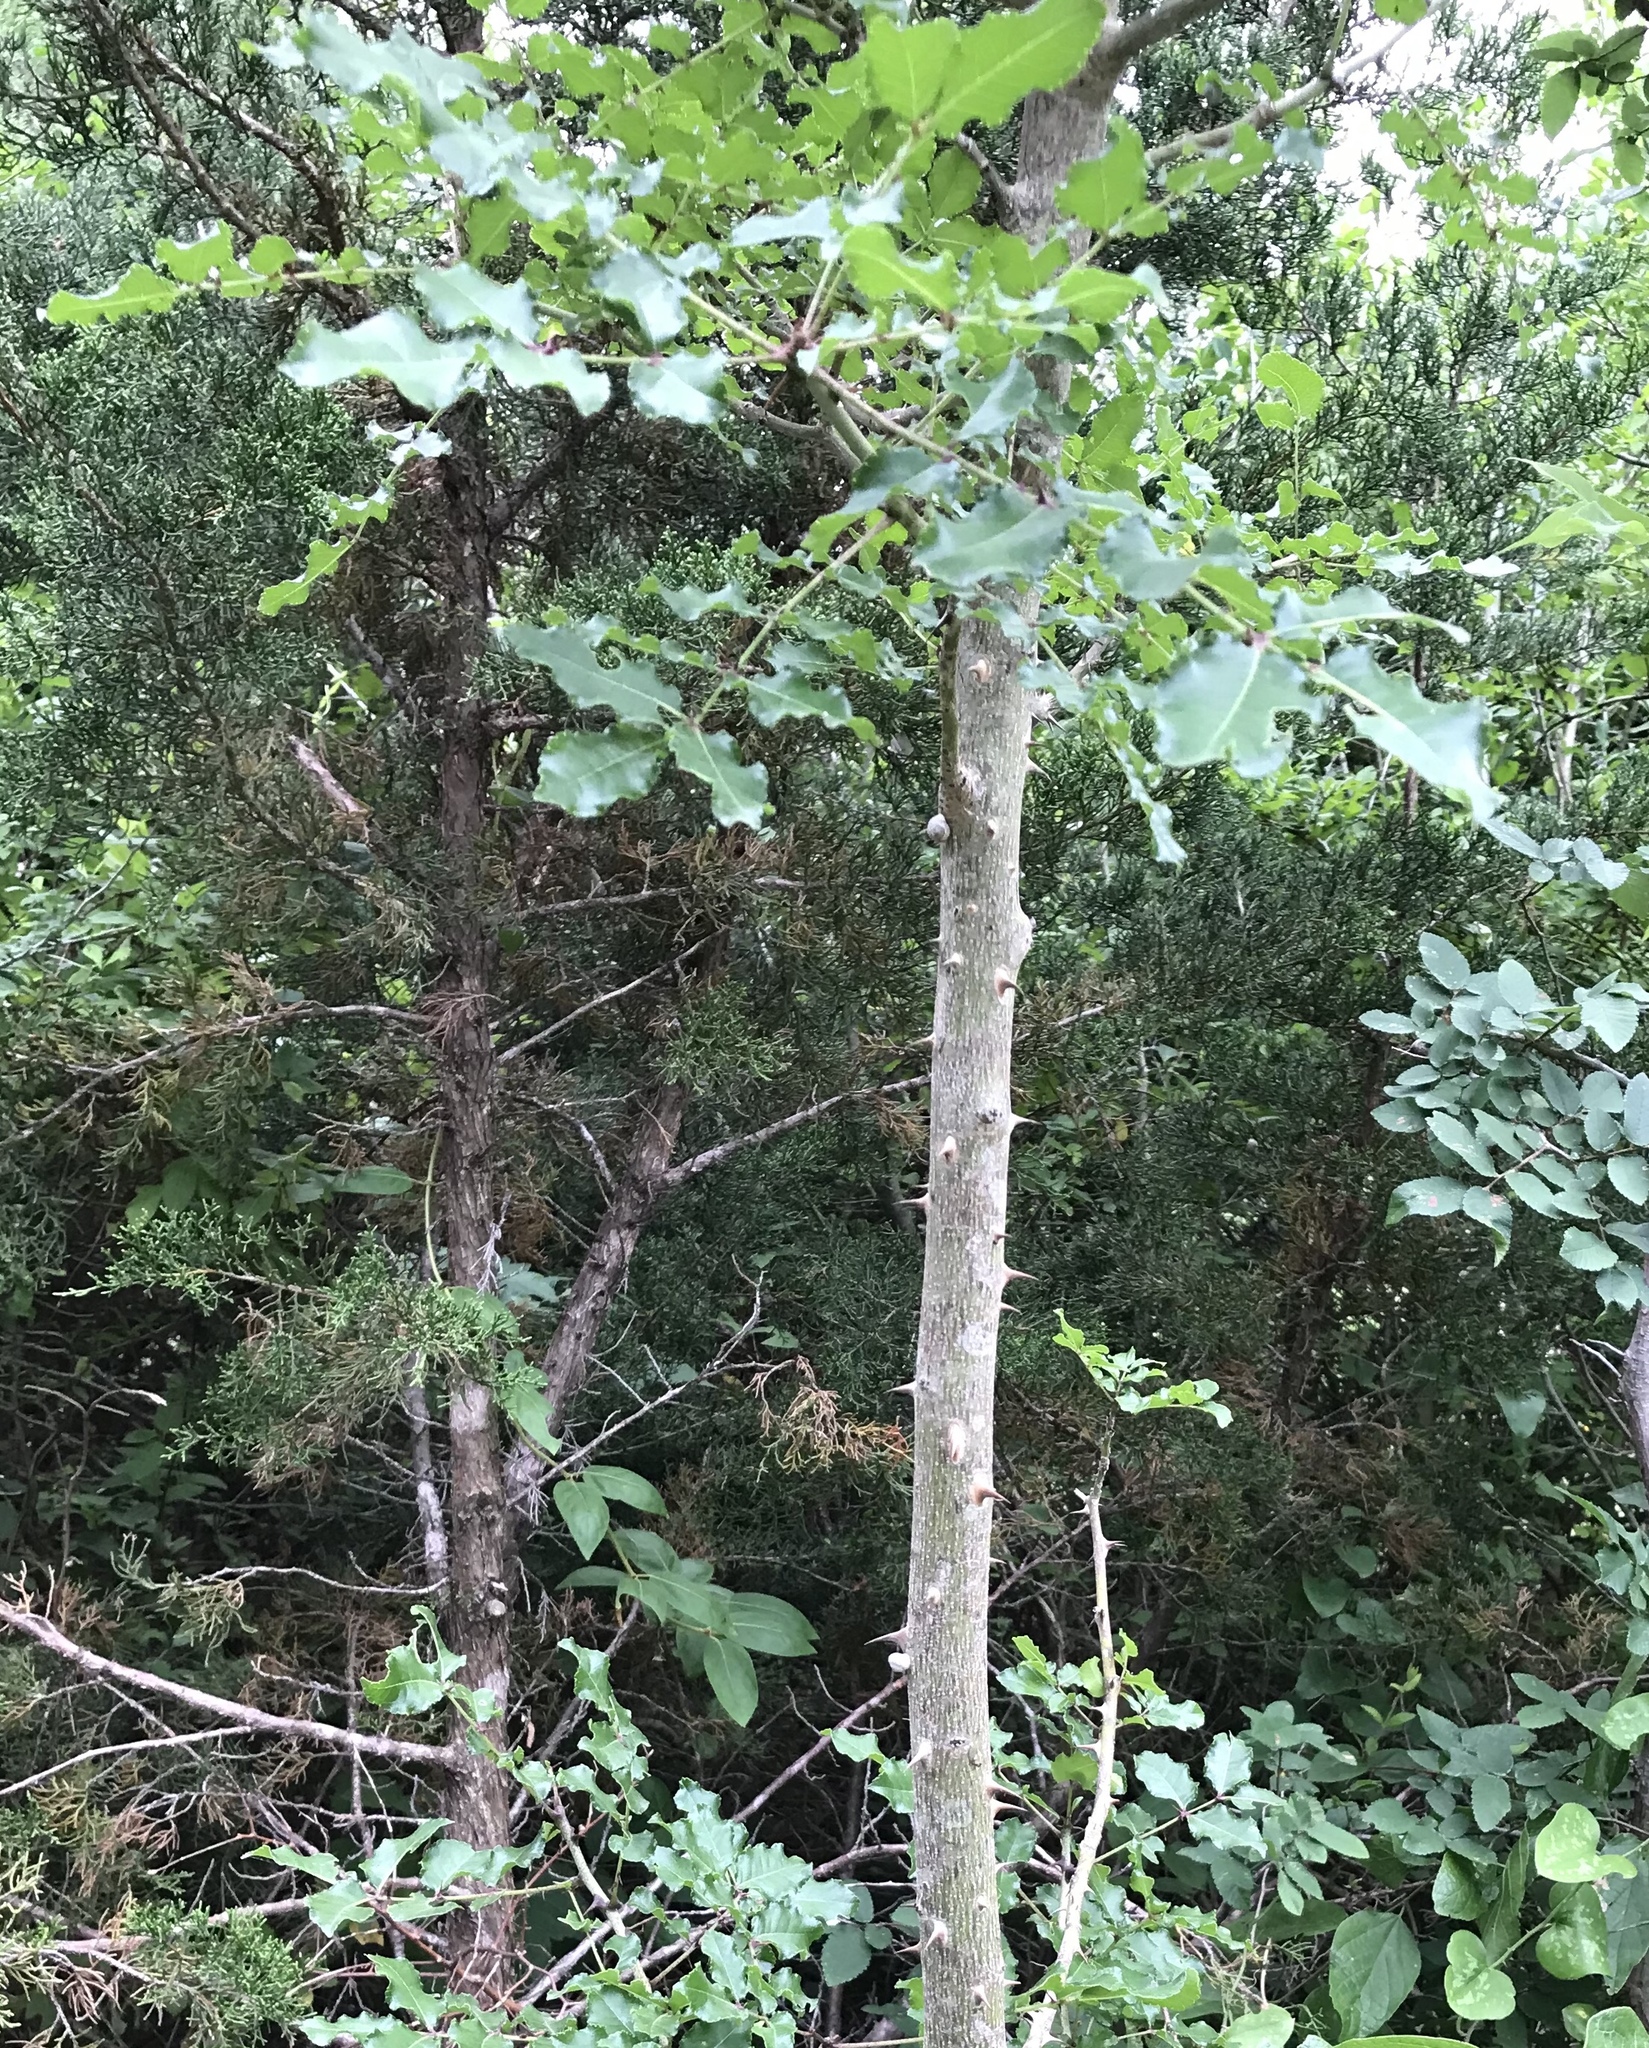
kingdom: Plantae
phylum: Tracheophyta
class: Magnoliopsida
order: Sapindales
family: Rutaceae
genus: Zanthoxylum
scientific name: Zanthoxylum clava-herculis
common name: Hercules'-club
